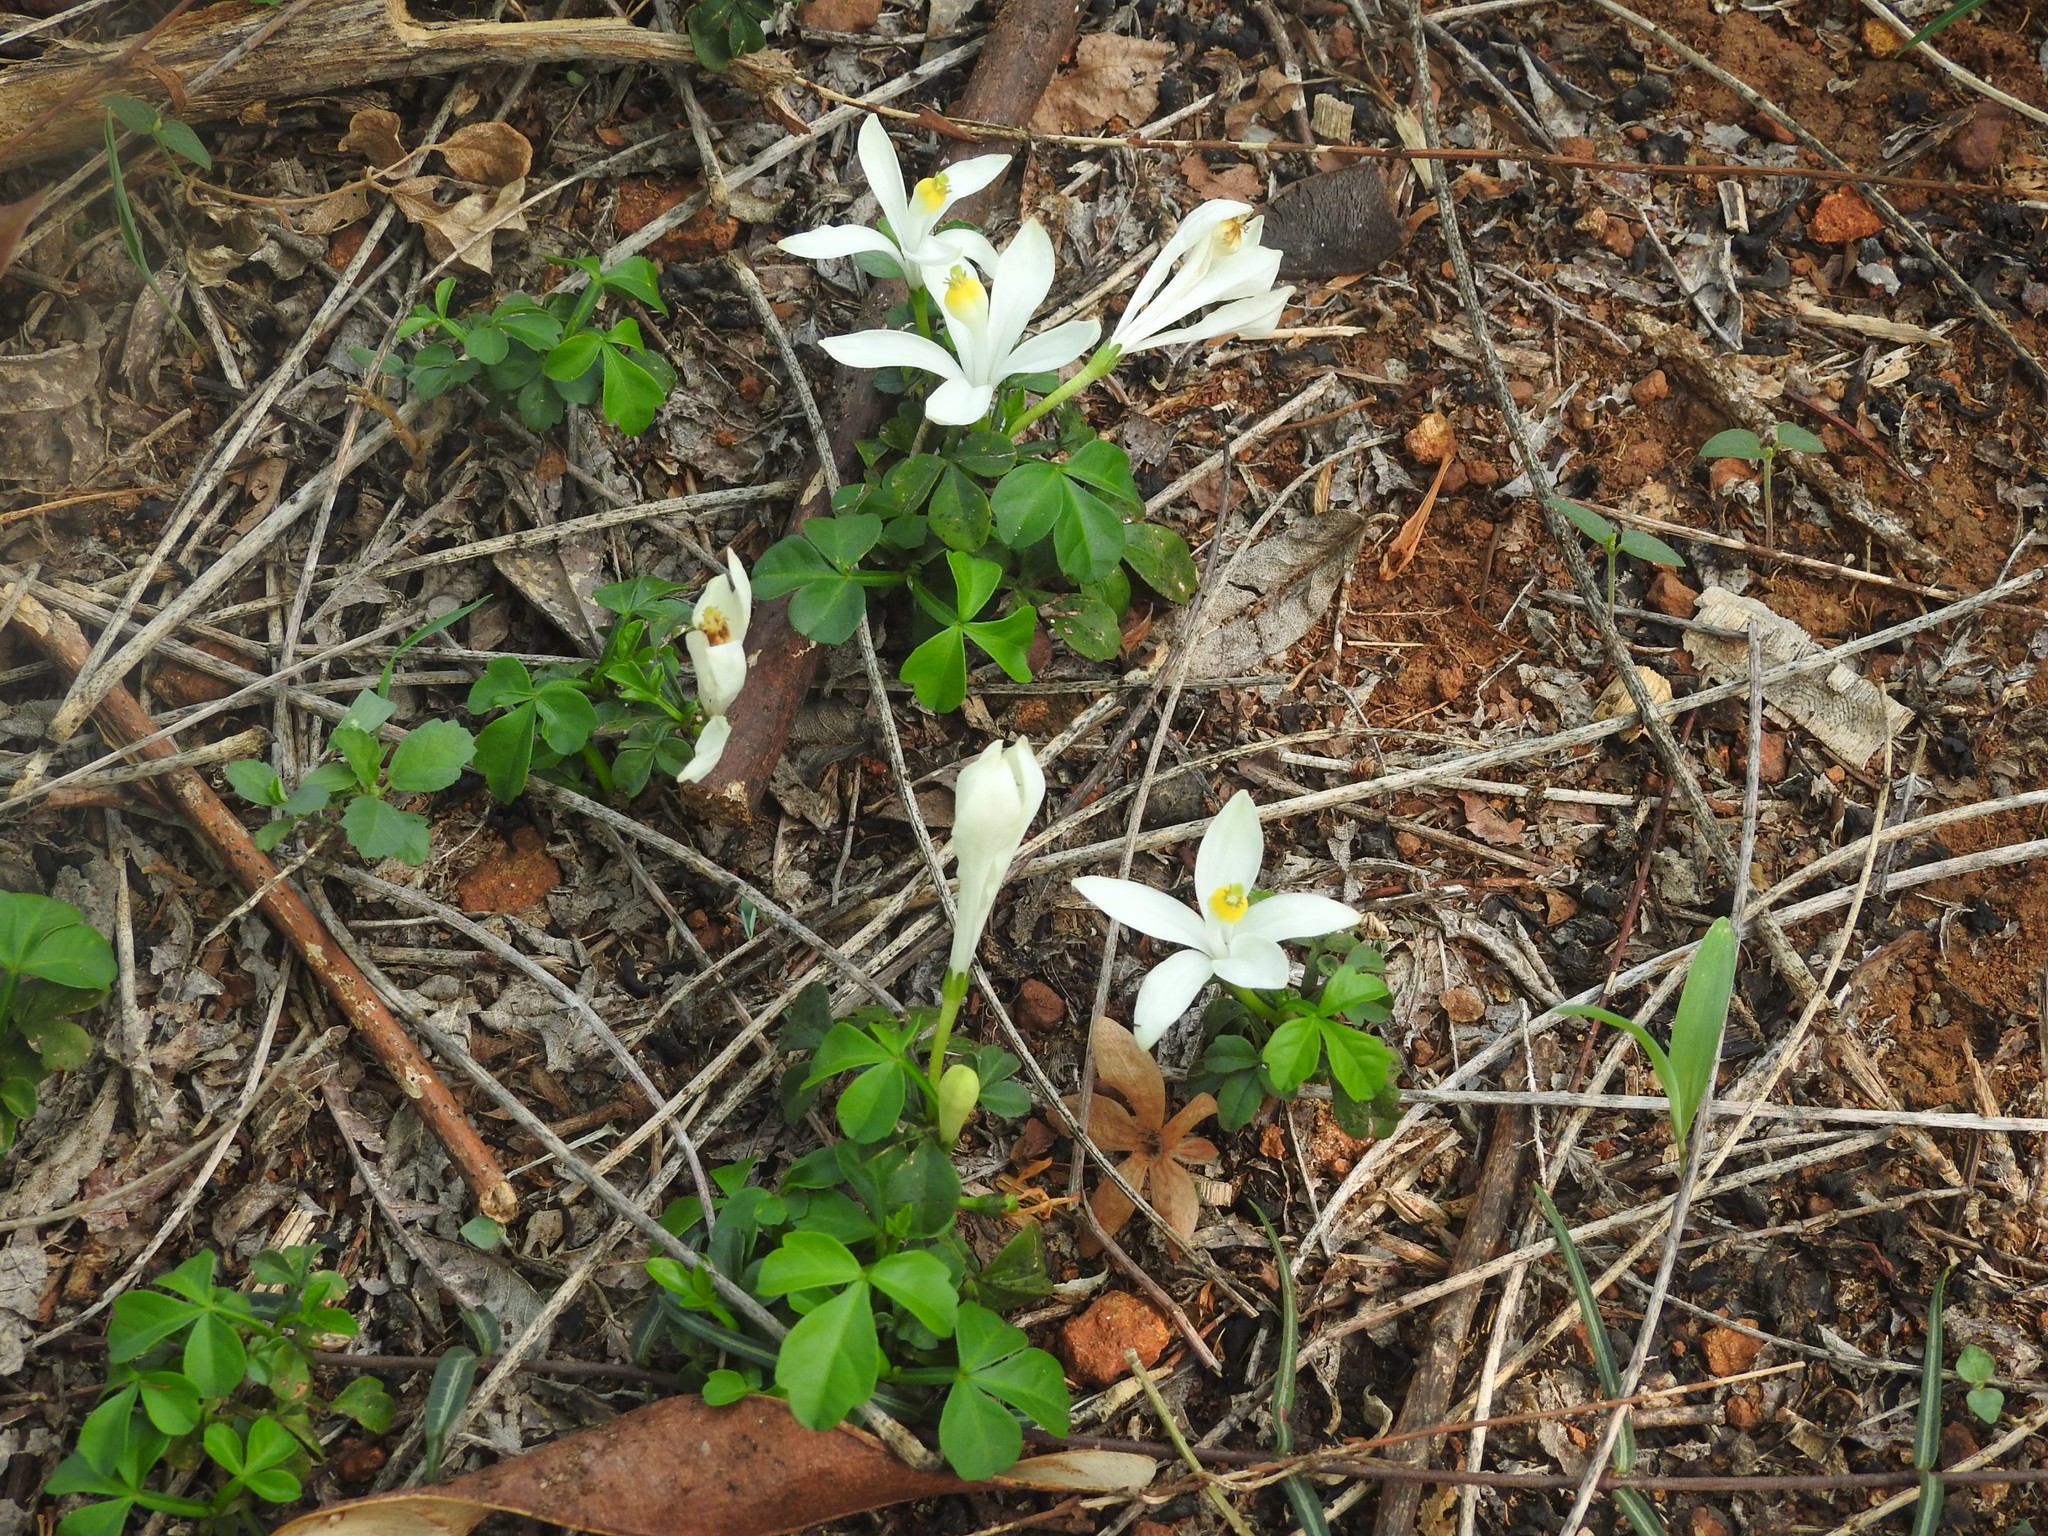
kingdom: Plantae
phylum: Tracheophyta
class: Magnoliopsida
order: Sapindales
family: Meliaceae
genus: Naregamia
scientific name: Naregamia alata
